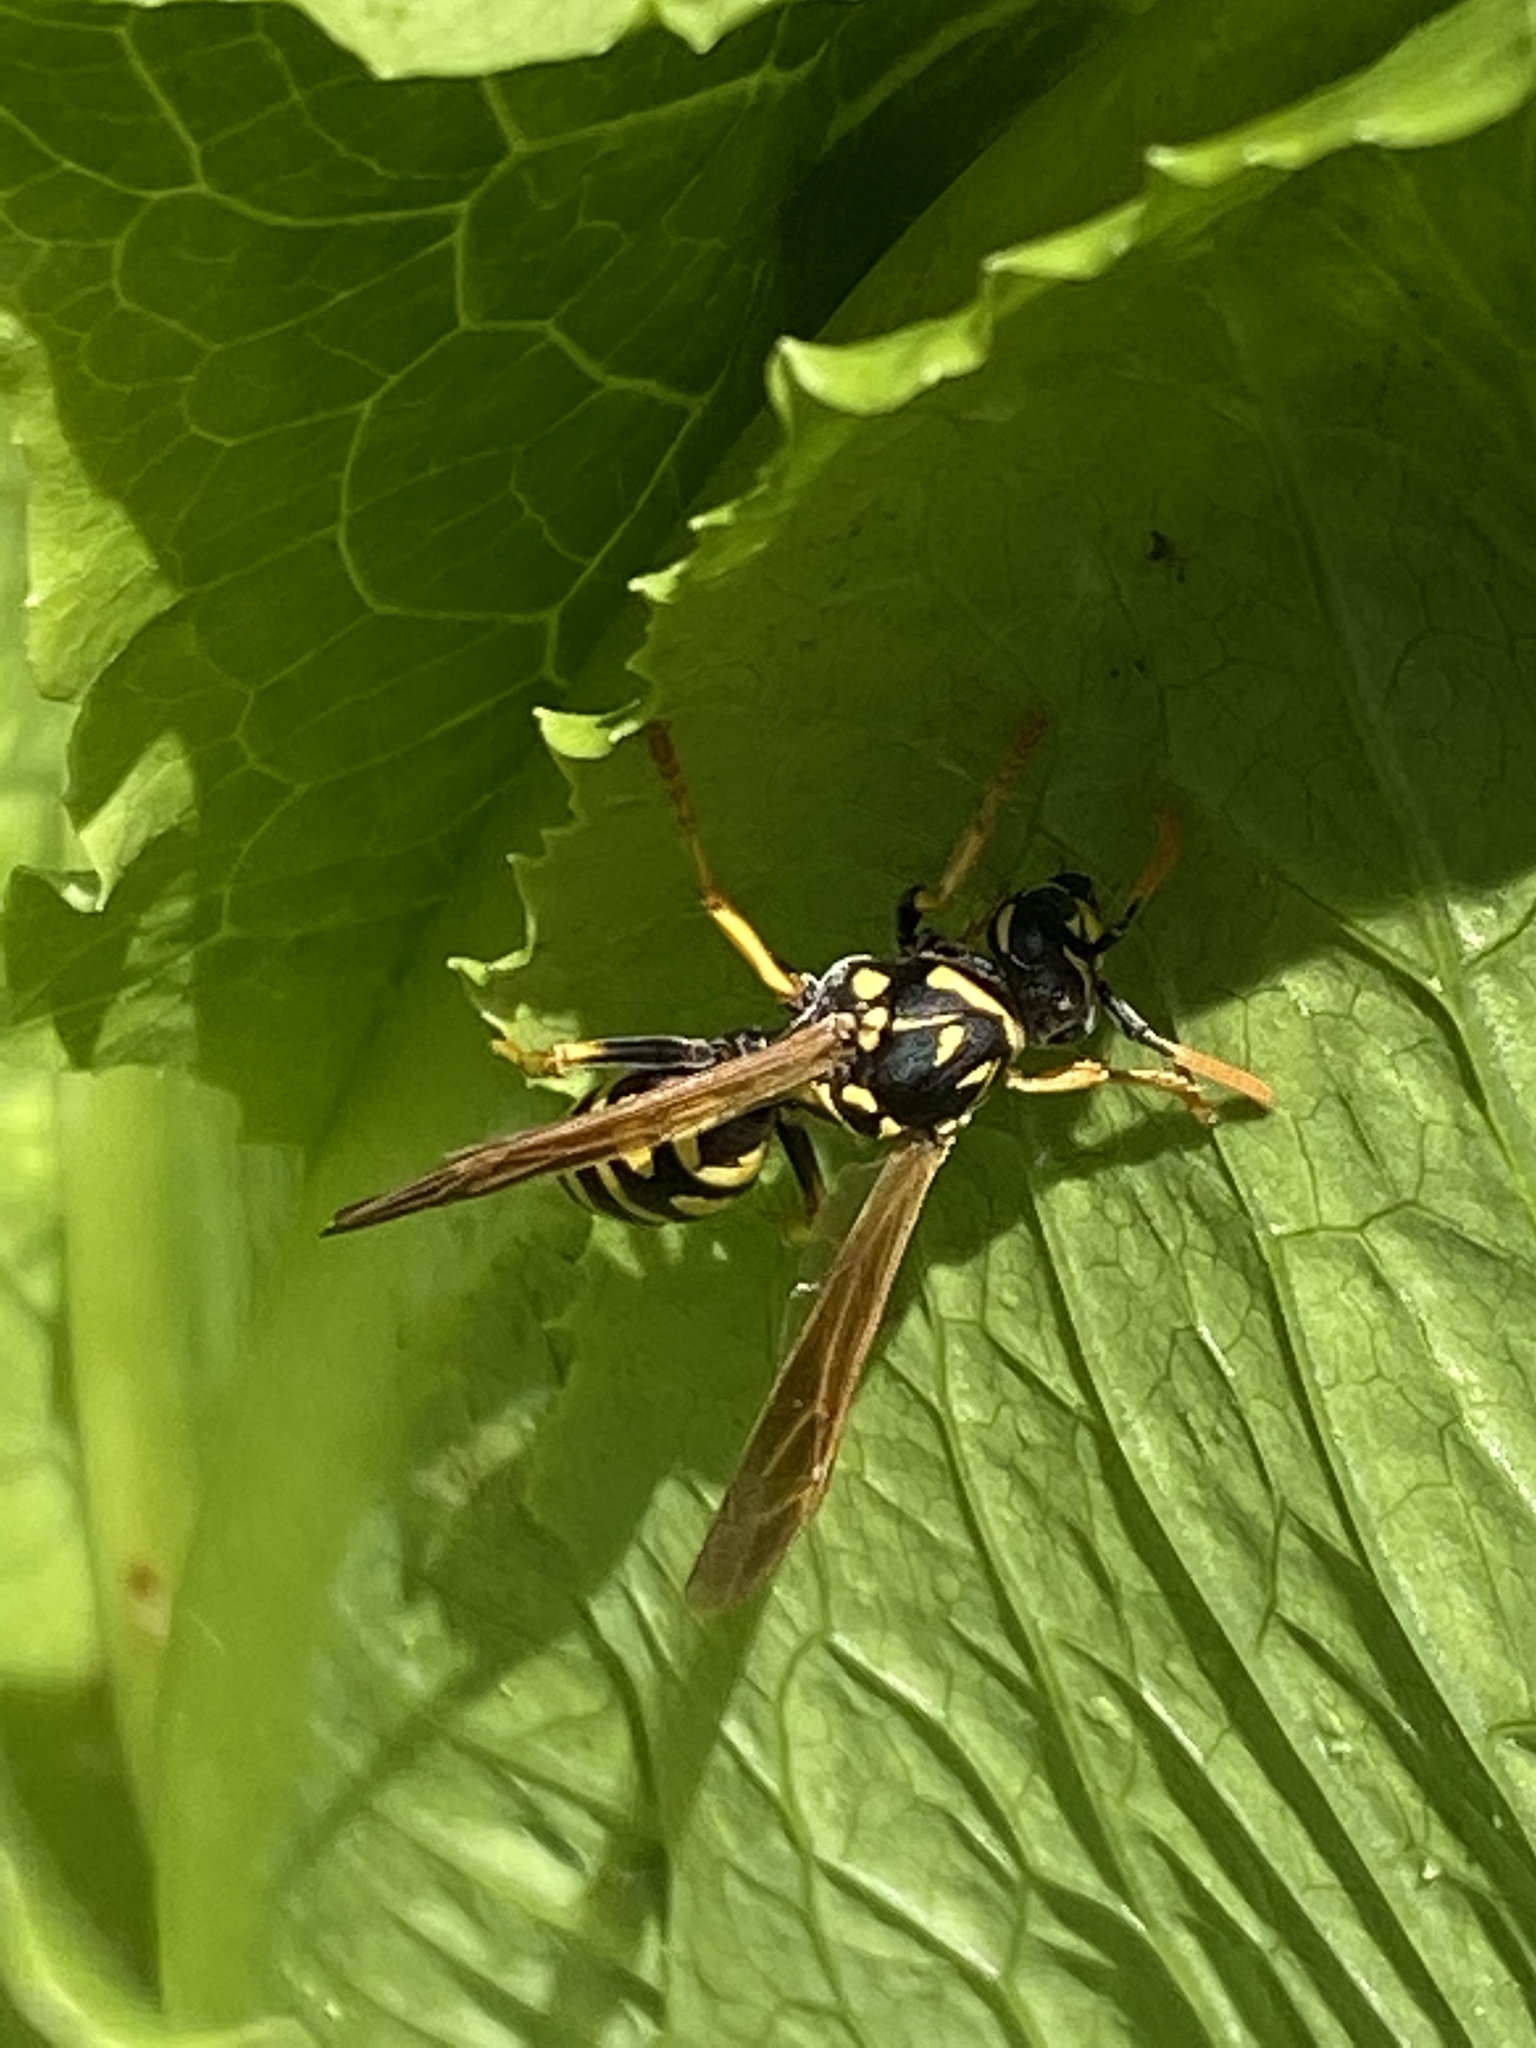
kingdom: Animalia
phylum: Arthropoda
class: Insecta
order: Hymenoptera
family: Eumenidae
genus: Polistes
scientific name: Polistes dominula
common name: Paper wasp
